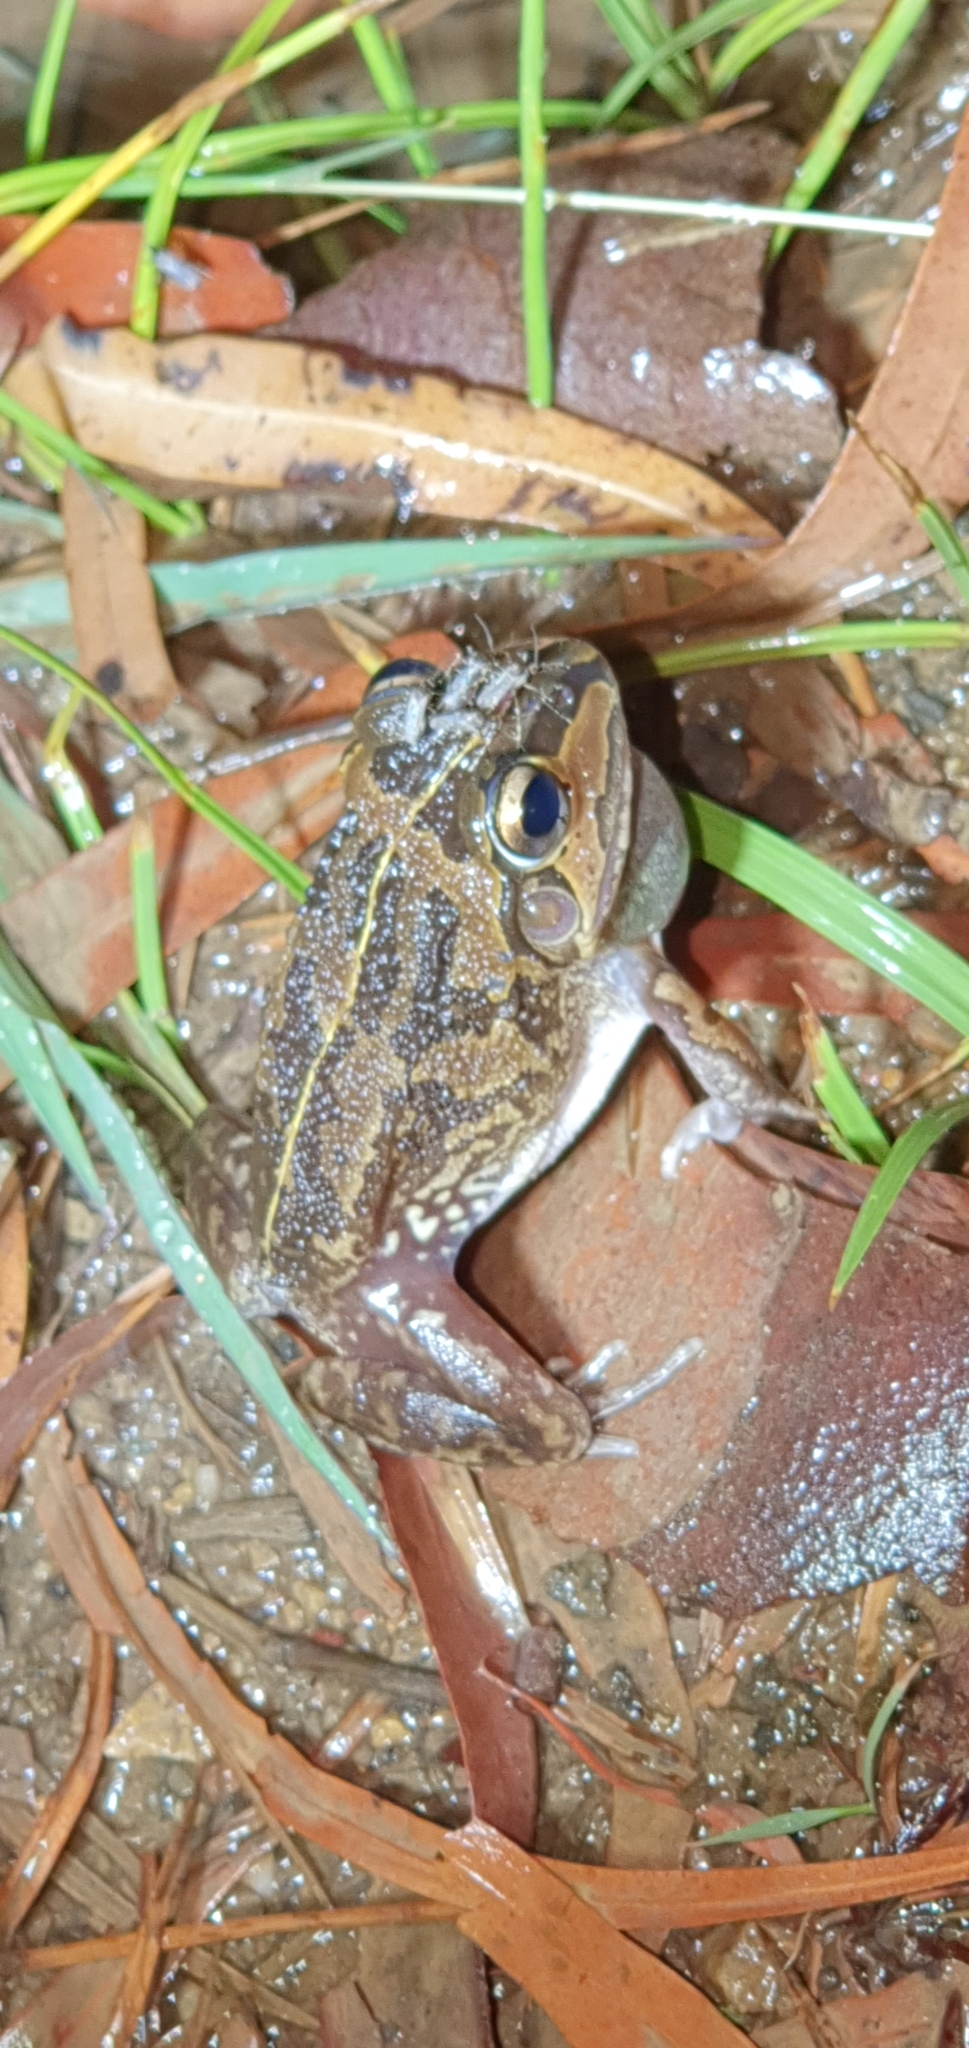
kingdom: Animalia
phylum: Chordata
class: Amphibia
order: Anura
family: Pelodryadidae
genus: Ranoidea
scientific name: Ranoidea brevipes
